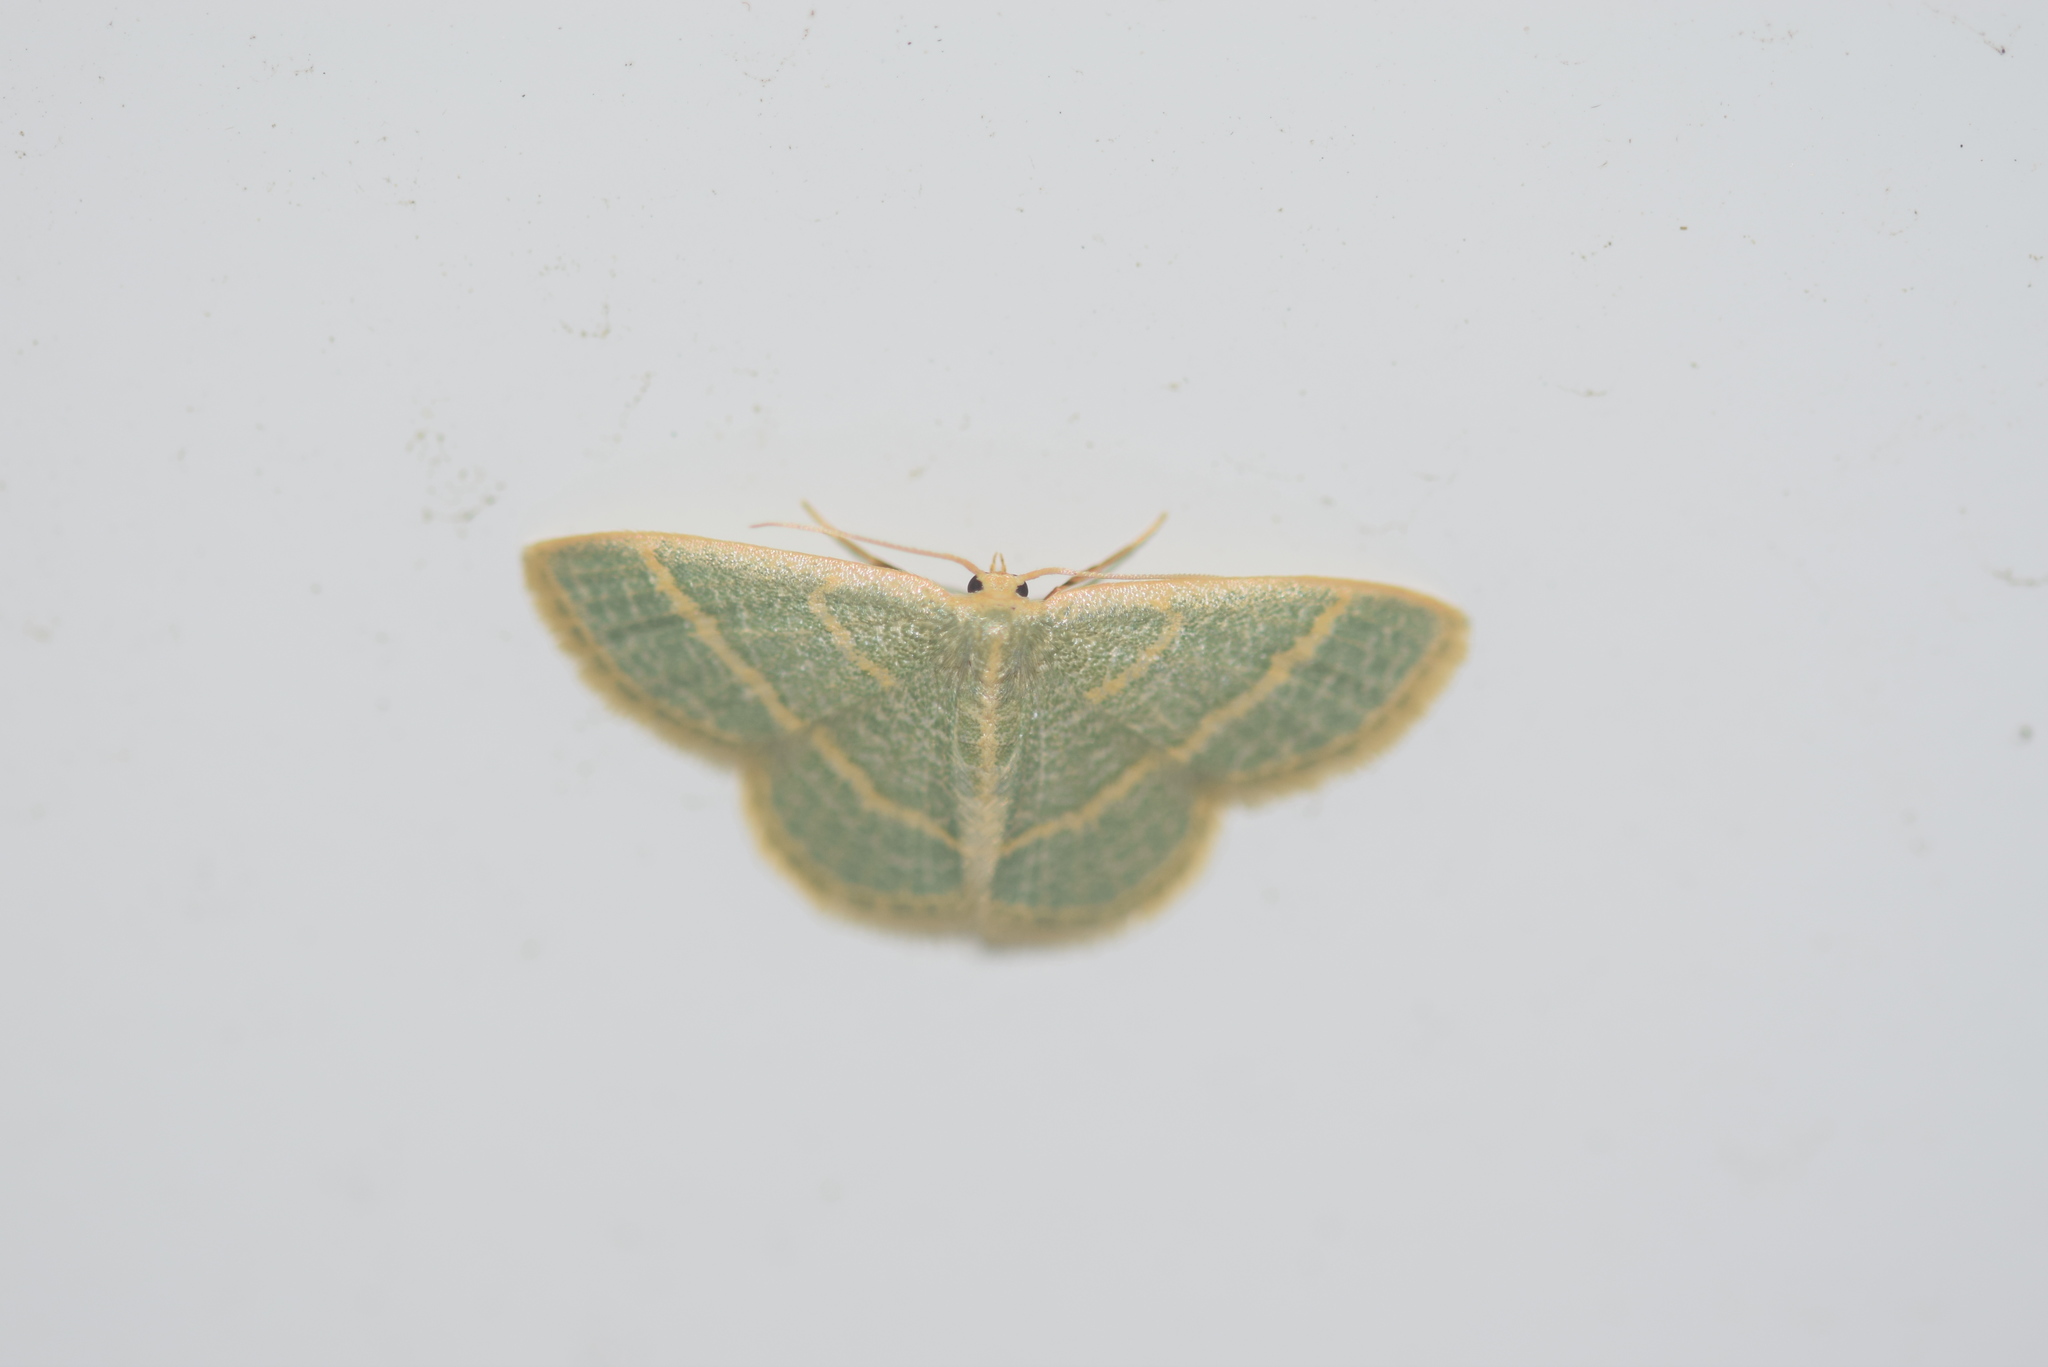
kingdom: Animalia
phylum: Arthropoda
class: Insecta
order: Lepidoptera
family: Geometridae
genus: Chlorochlamys
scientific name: Chlorochlamys chloroleucaria
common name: Blackberry looper
